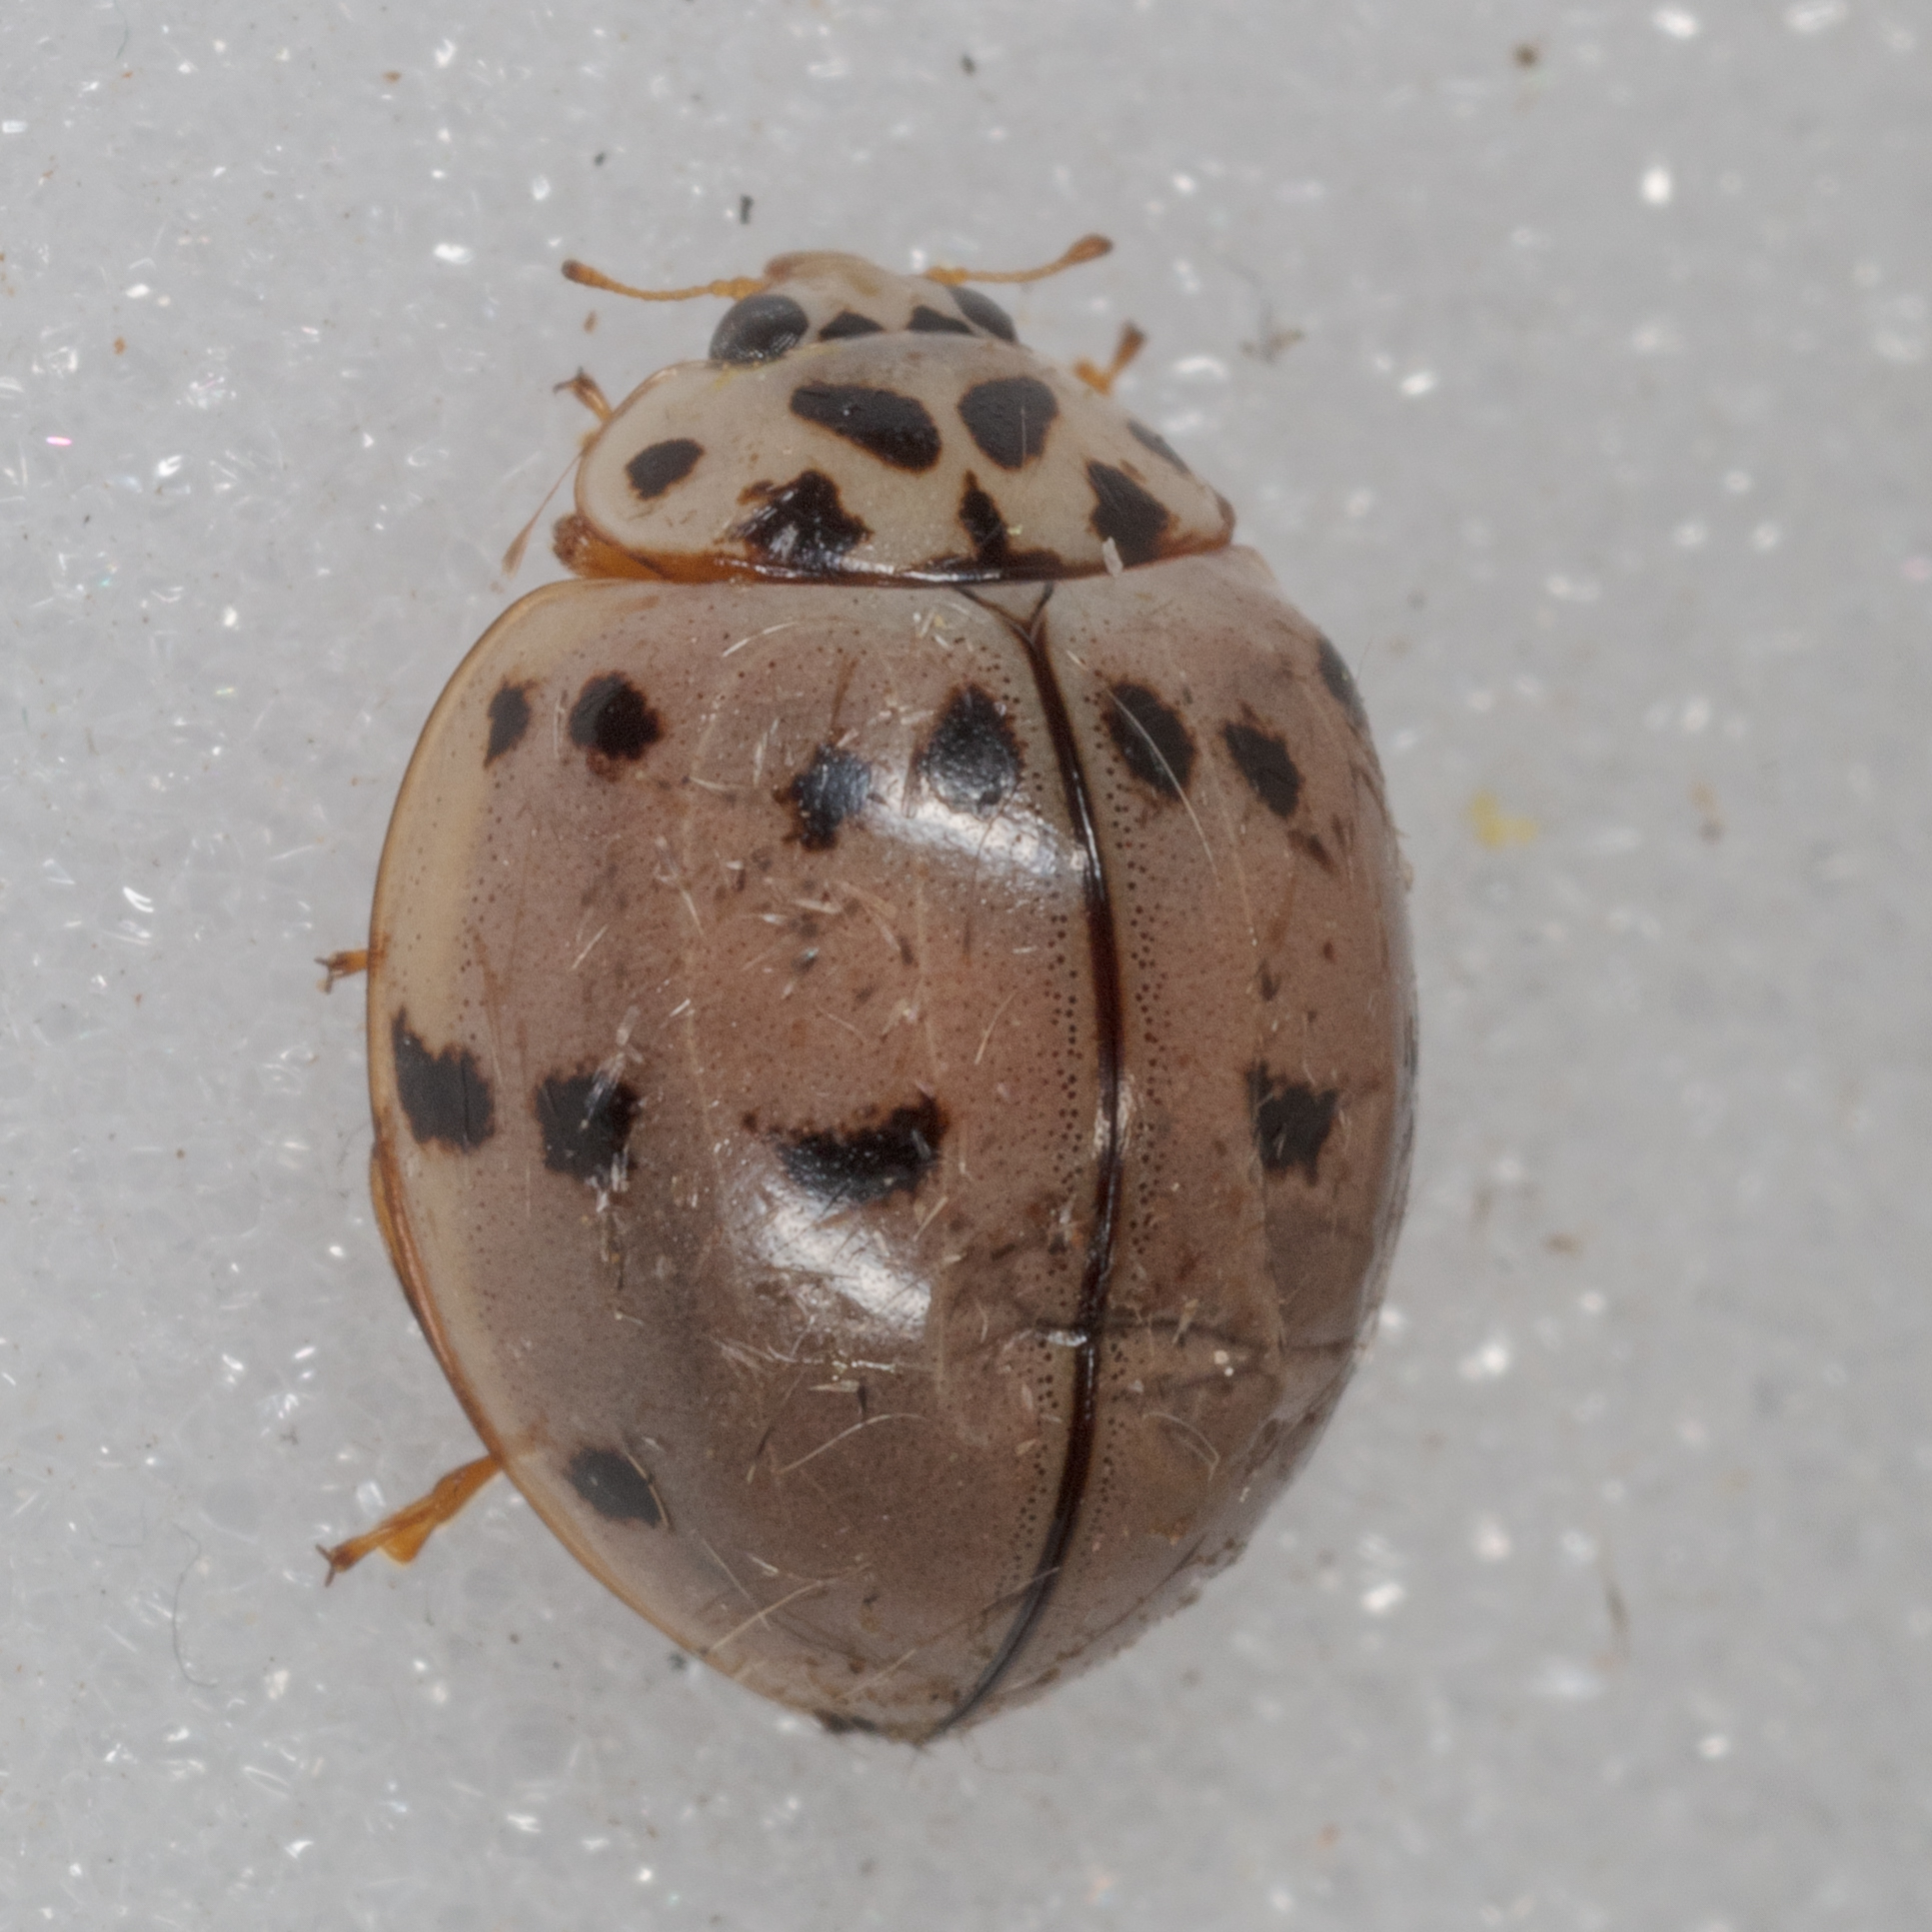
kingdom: Animalia
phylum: Arthropoda
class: Insecta
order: Coleoptera
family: Coccinellidae
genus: Olla
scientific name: Olla v-nigrum
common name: Ashy gray lady beetle
